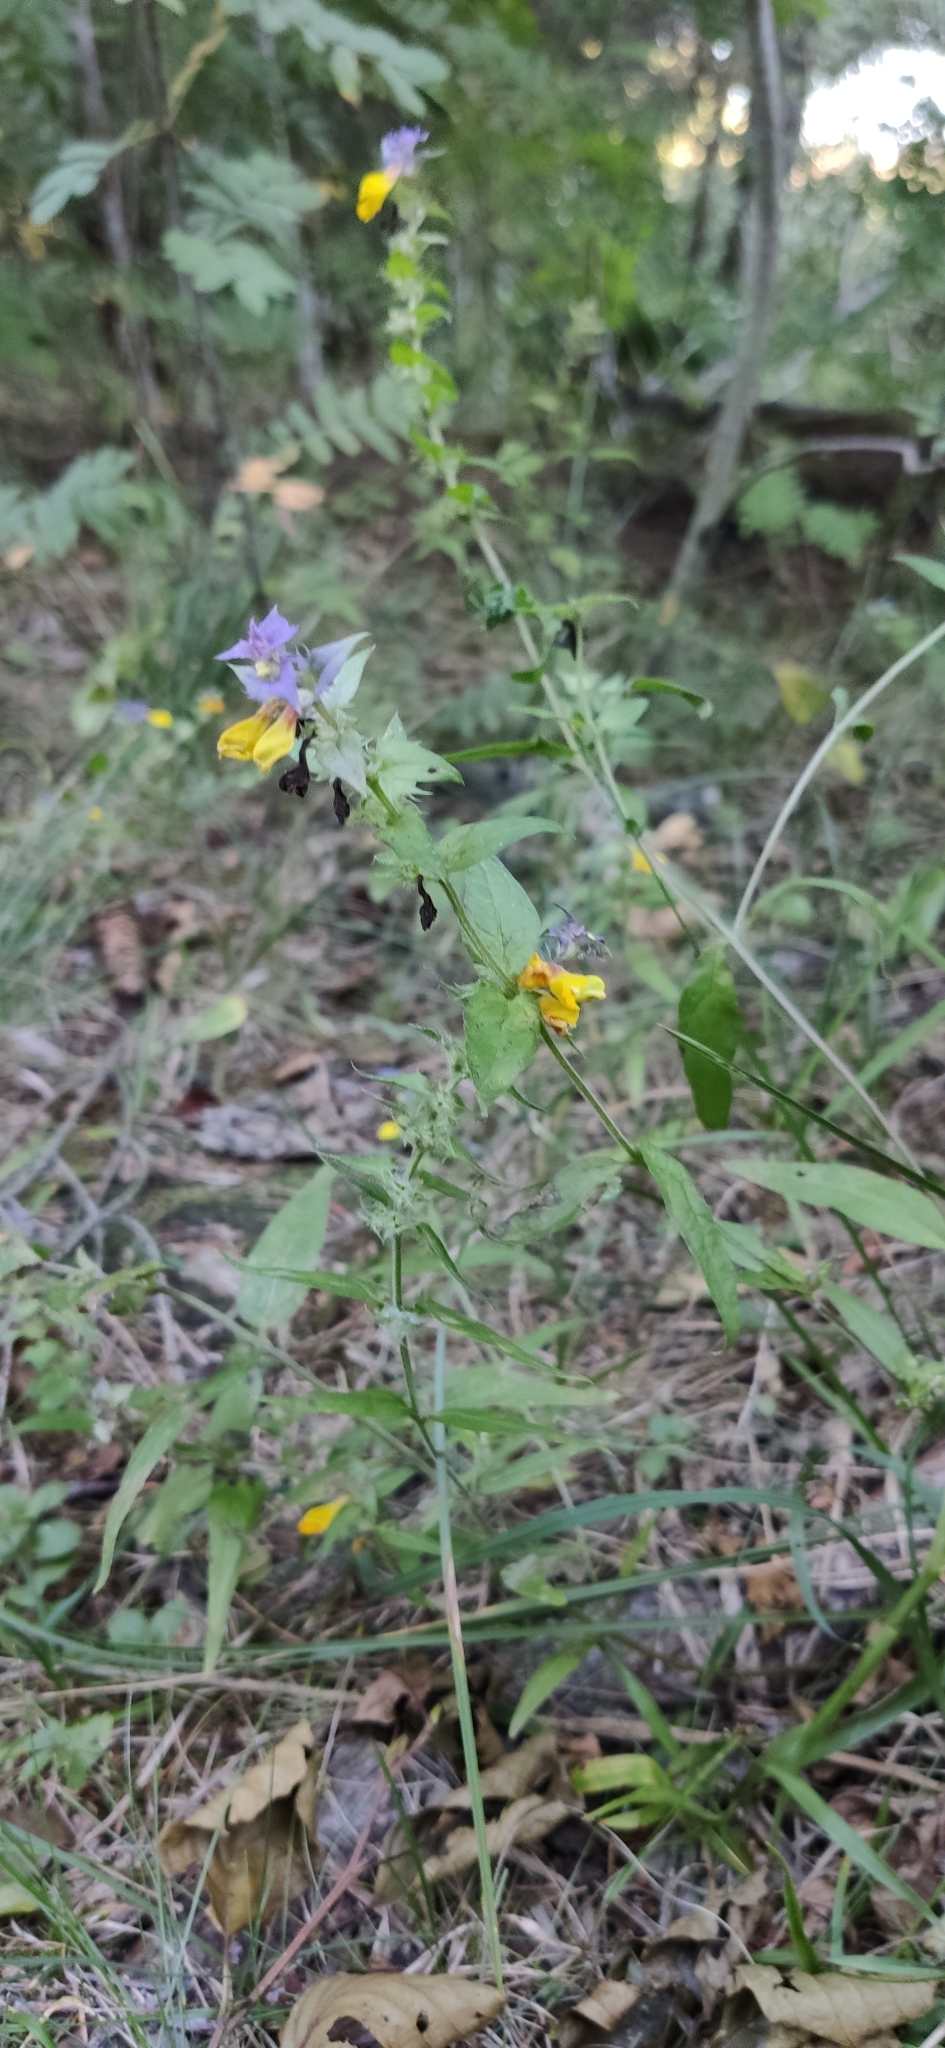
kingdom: Plantae
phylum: Tracheophyta
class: Magnoliopsida
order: Lamiales
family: Orobanchaceae
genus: Melampyrum
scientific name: Melampyrum nemorosum
